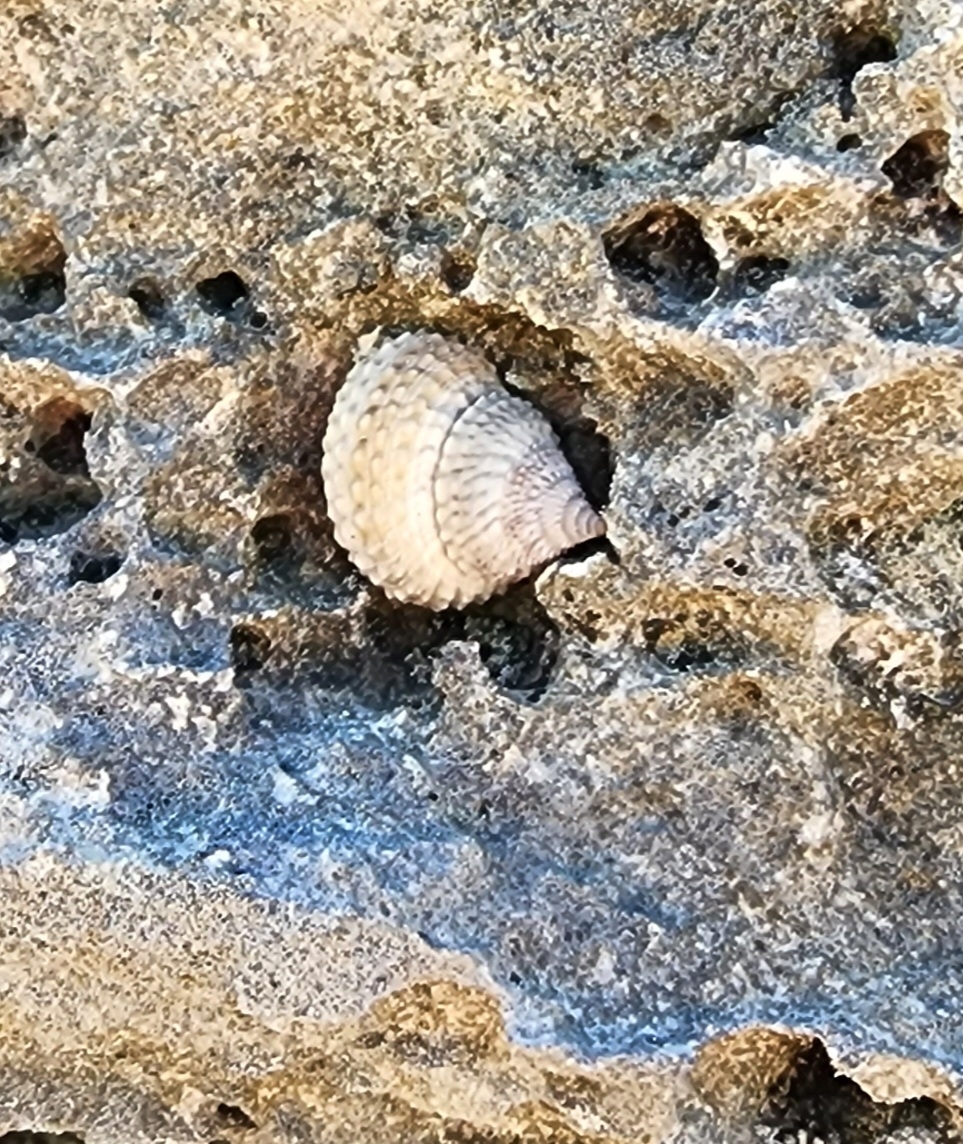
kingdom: Animalia
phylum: Mollusca
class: Gastropoda
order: Littorinimorpha
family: Littorinidae
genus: Cenchritis
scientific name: Cenchritis muricatus
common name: Beaded periwinkle
